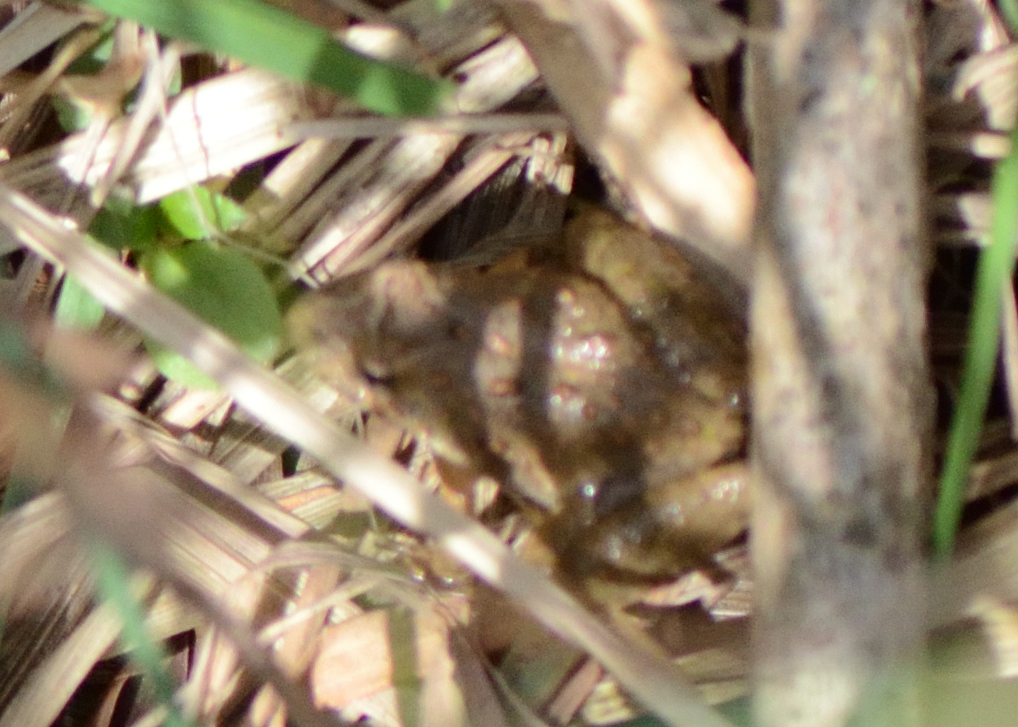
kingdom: Animalia
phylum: Chordata
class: Amphibia
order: Anura
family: Hylidae
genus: Acris
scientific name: Acris crepitans
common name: Northern cricket frog
